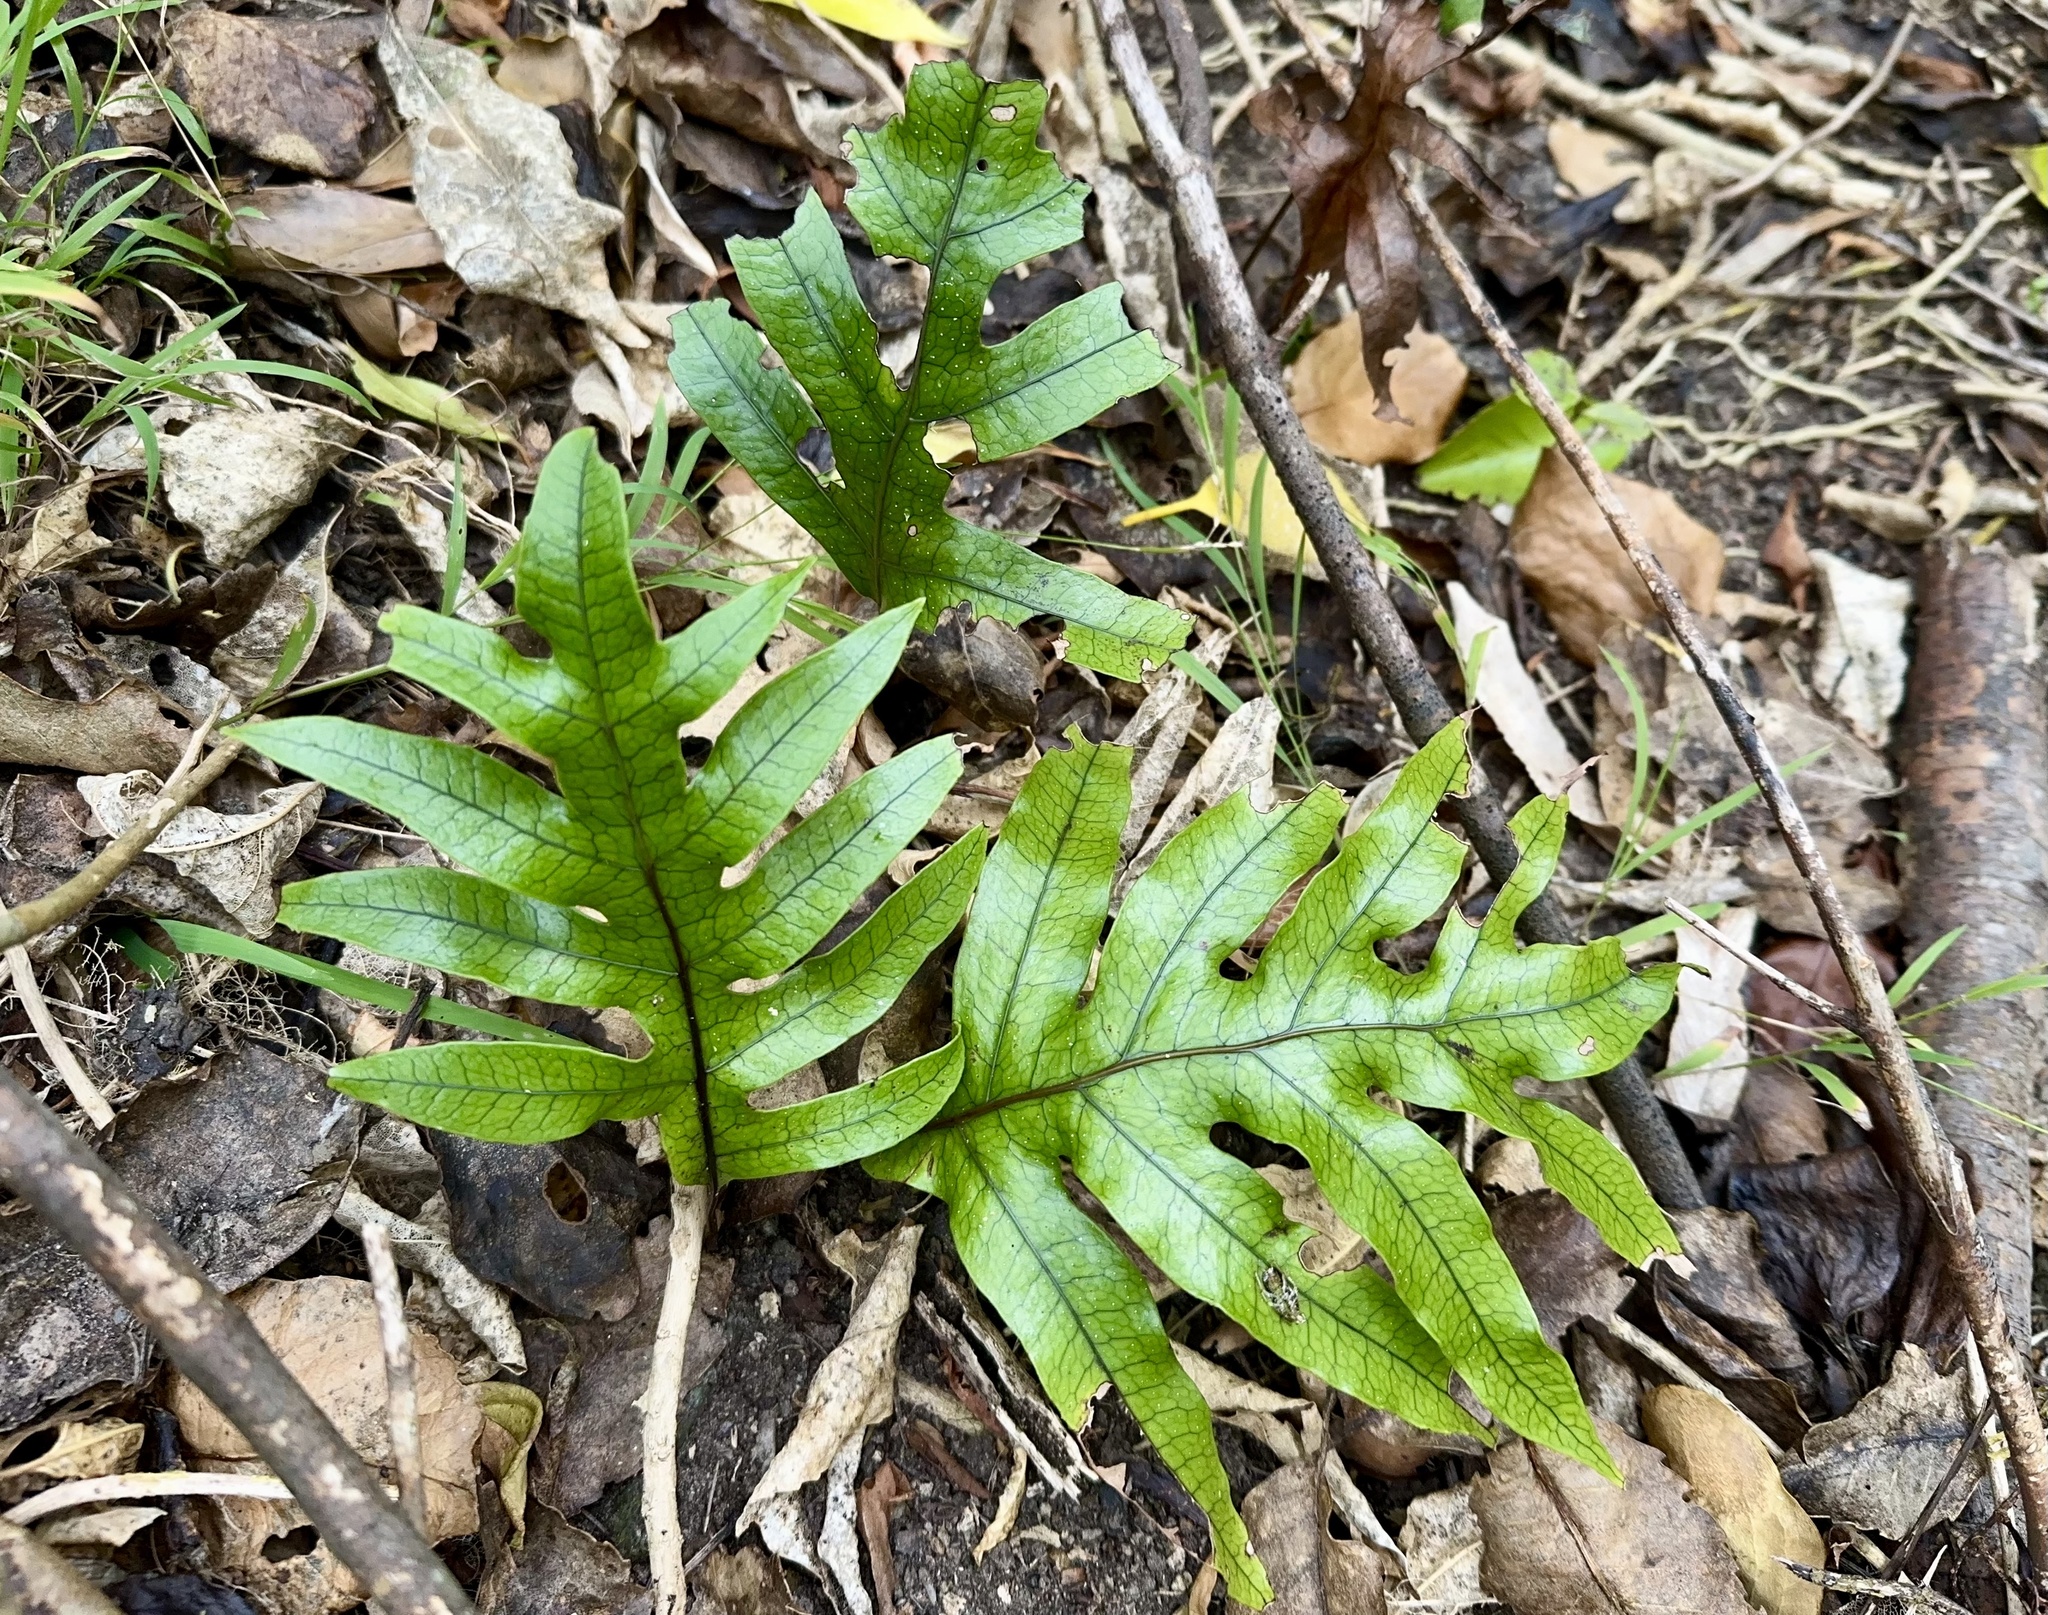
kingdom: Plantae
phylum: Tracheophyta
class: Polypodiopsida
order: Polypodiales
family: Polypodiaceae
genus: Lecanopteris
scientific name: Lecanopteris pustulata
